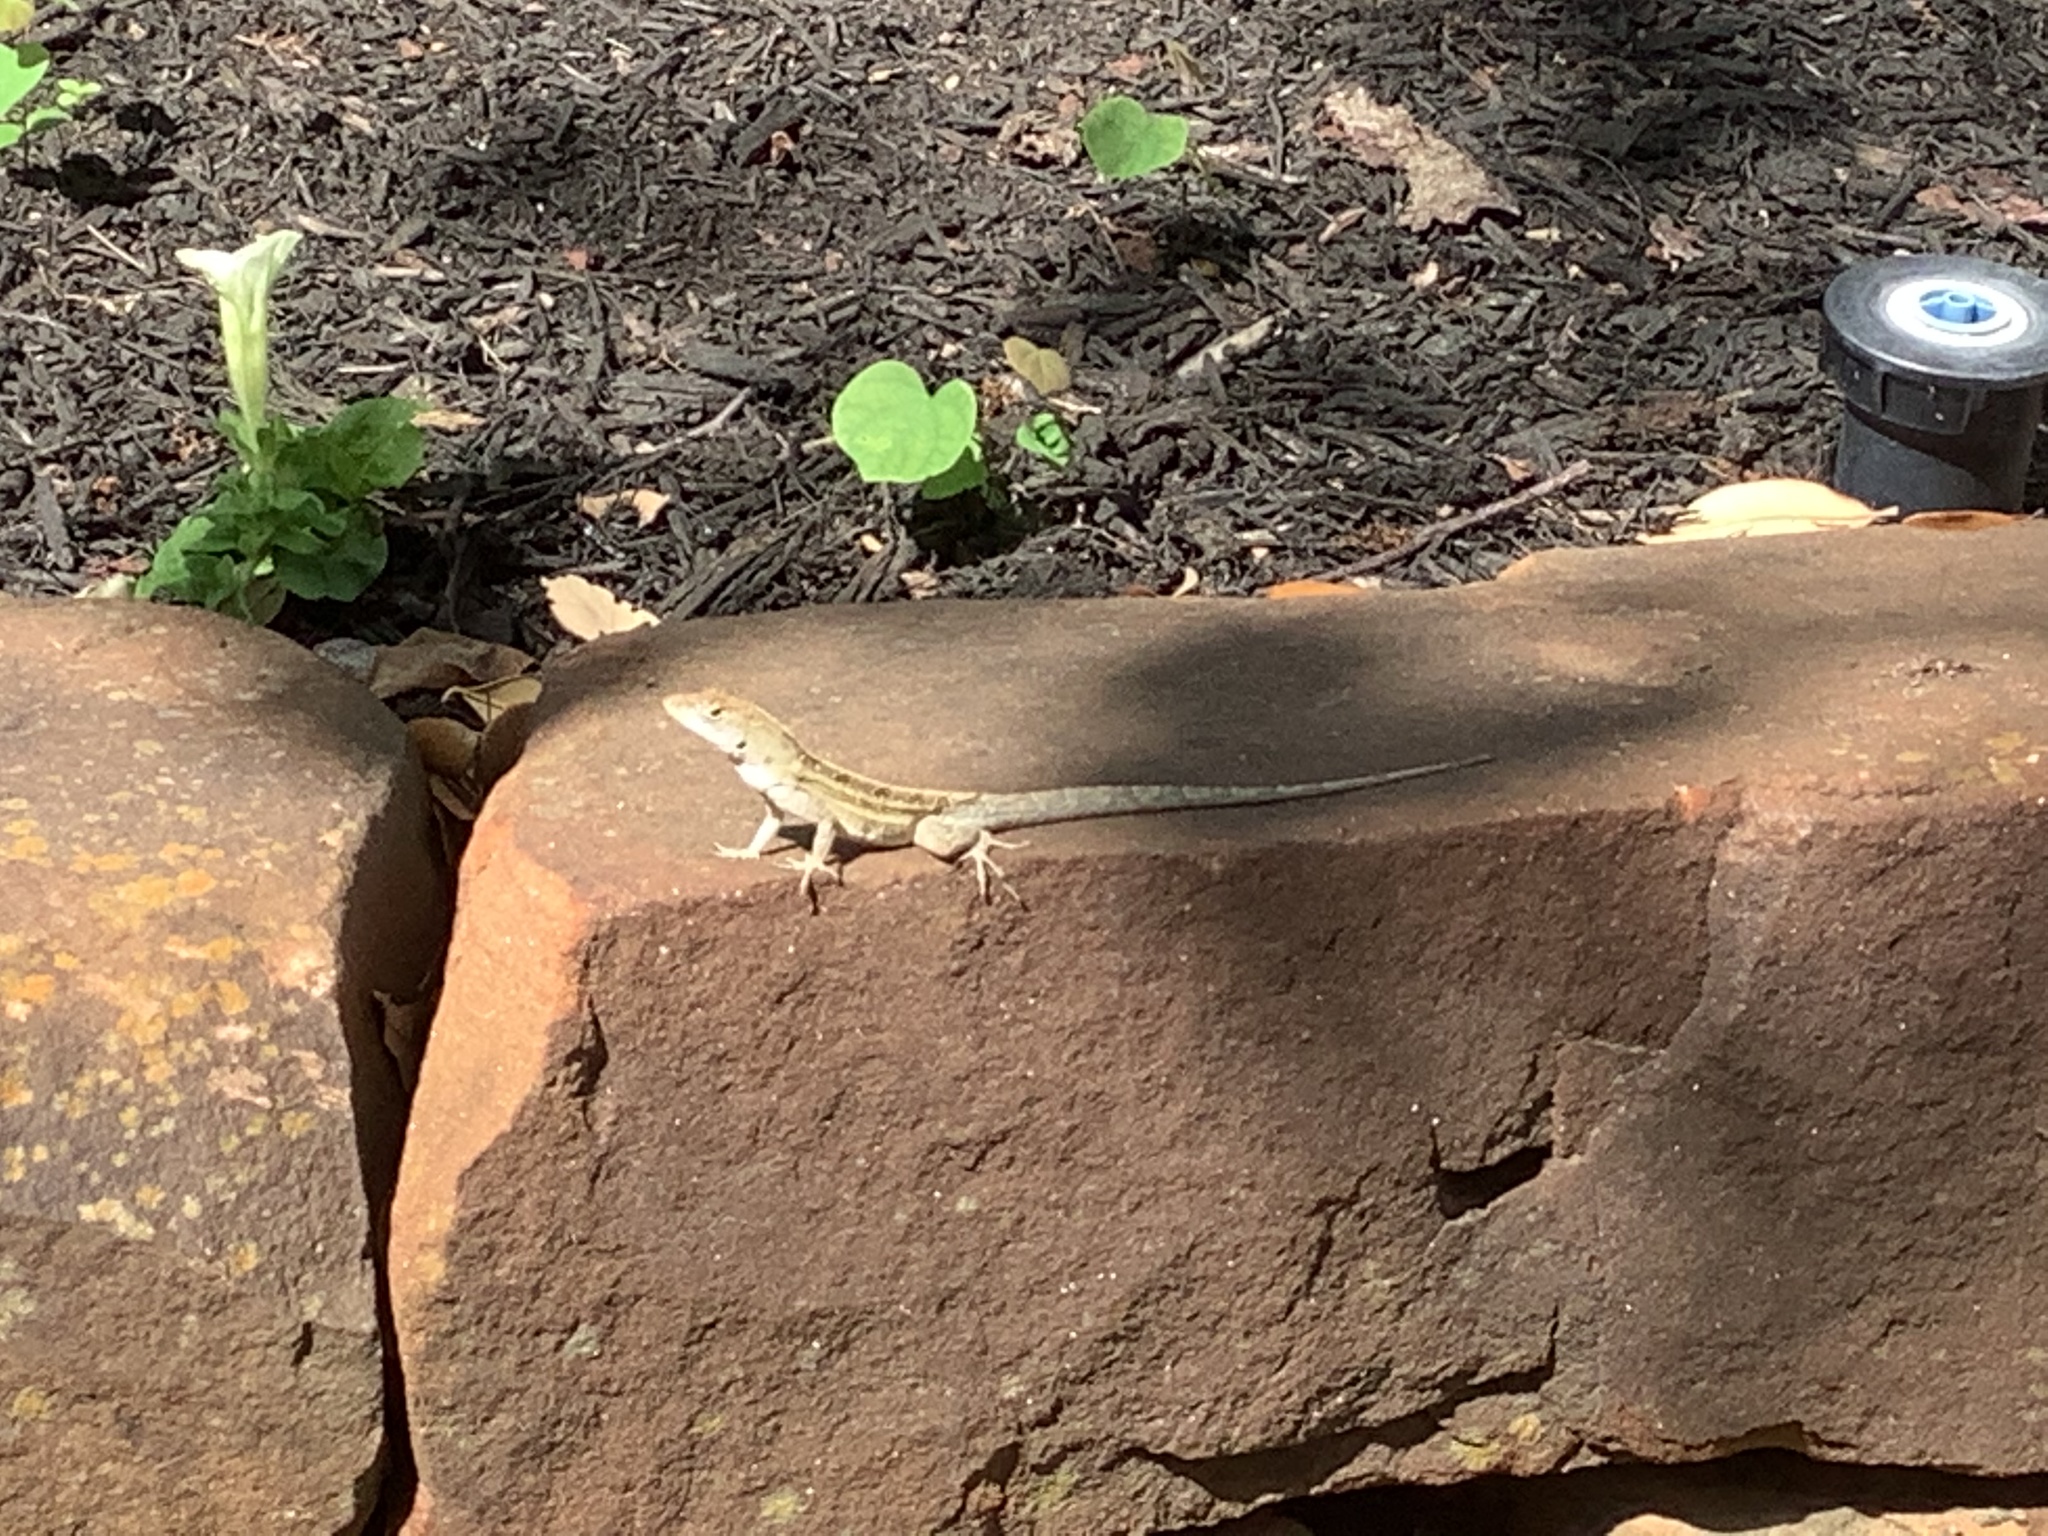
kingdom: Animalia
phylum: Chordata
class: Squamata
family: Dactyloidae
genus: Anolis
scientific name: Anolis sagrei
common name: Brown anole
